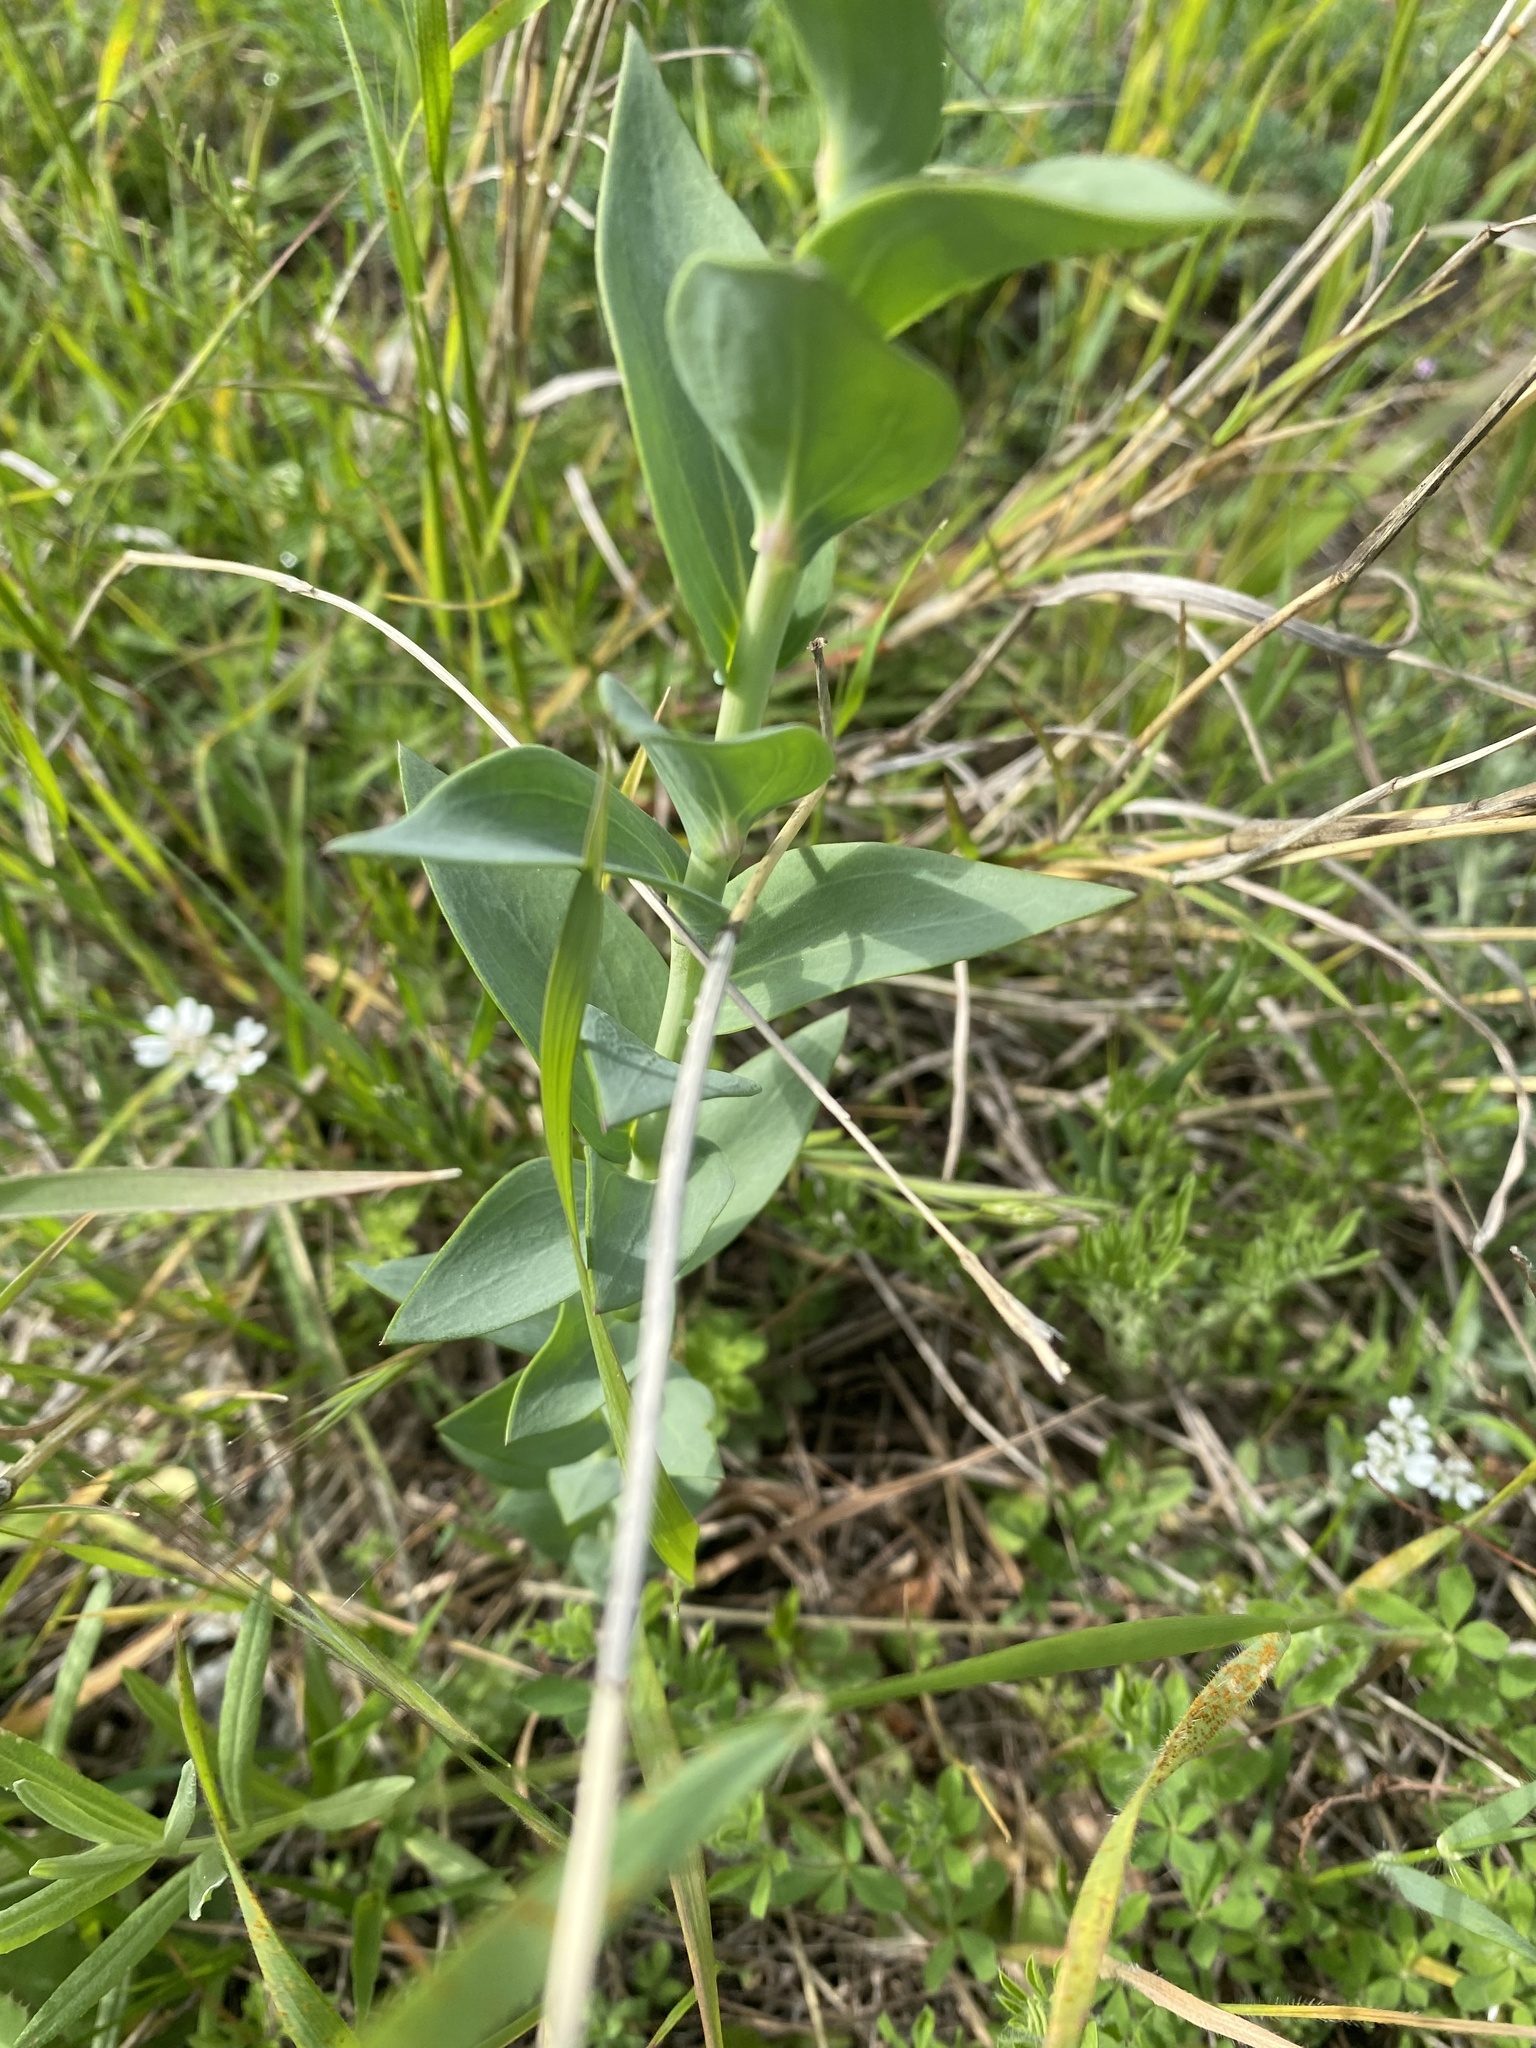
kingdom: Plantae
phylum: Tracheophyta
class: Magnoliopsida
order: Lamiales
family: Plantaginaceae
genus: Linaria
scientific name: Linaria genistifolia
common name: Broomleaf toadflax
